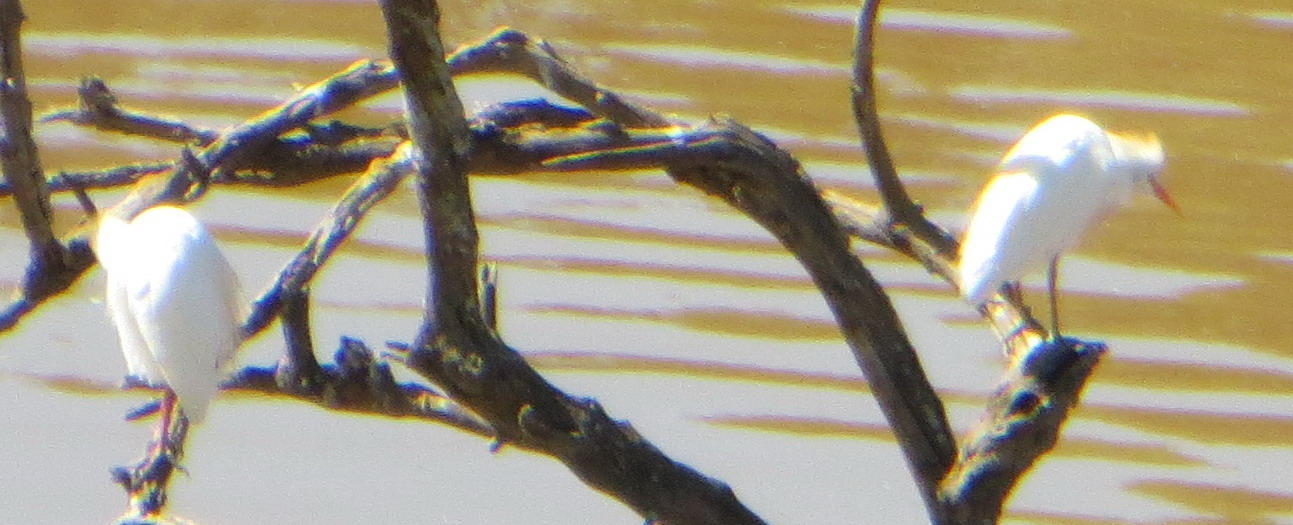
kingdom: Animalia
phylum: Chordata
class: Aves
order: Pelecaniformes
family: Ardeidae
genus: Bubulcus
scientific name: Bubulcus ibis
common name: Cattle egret
